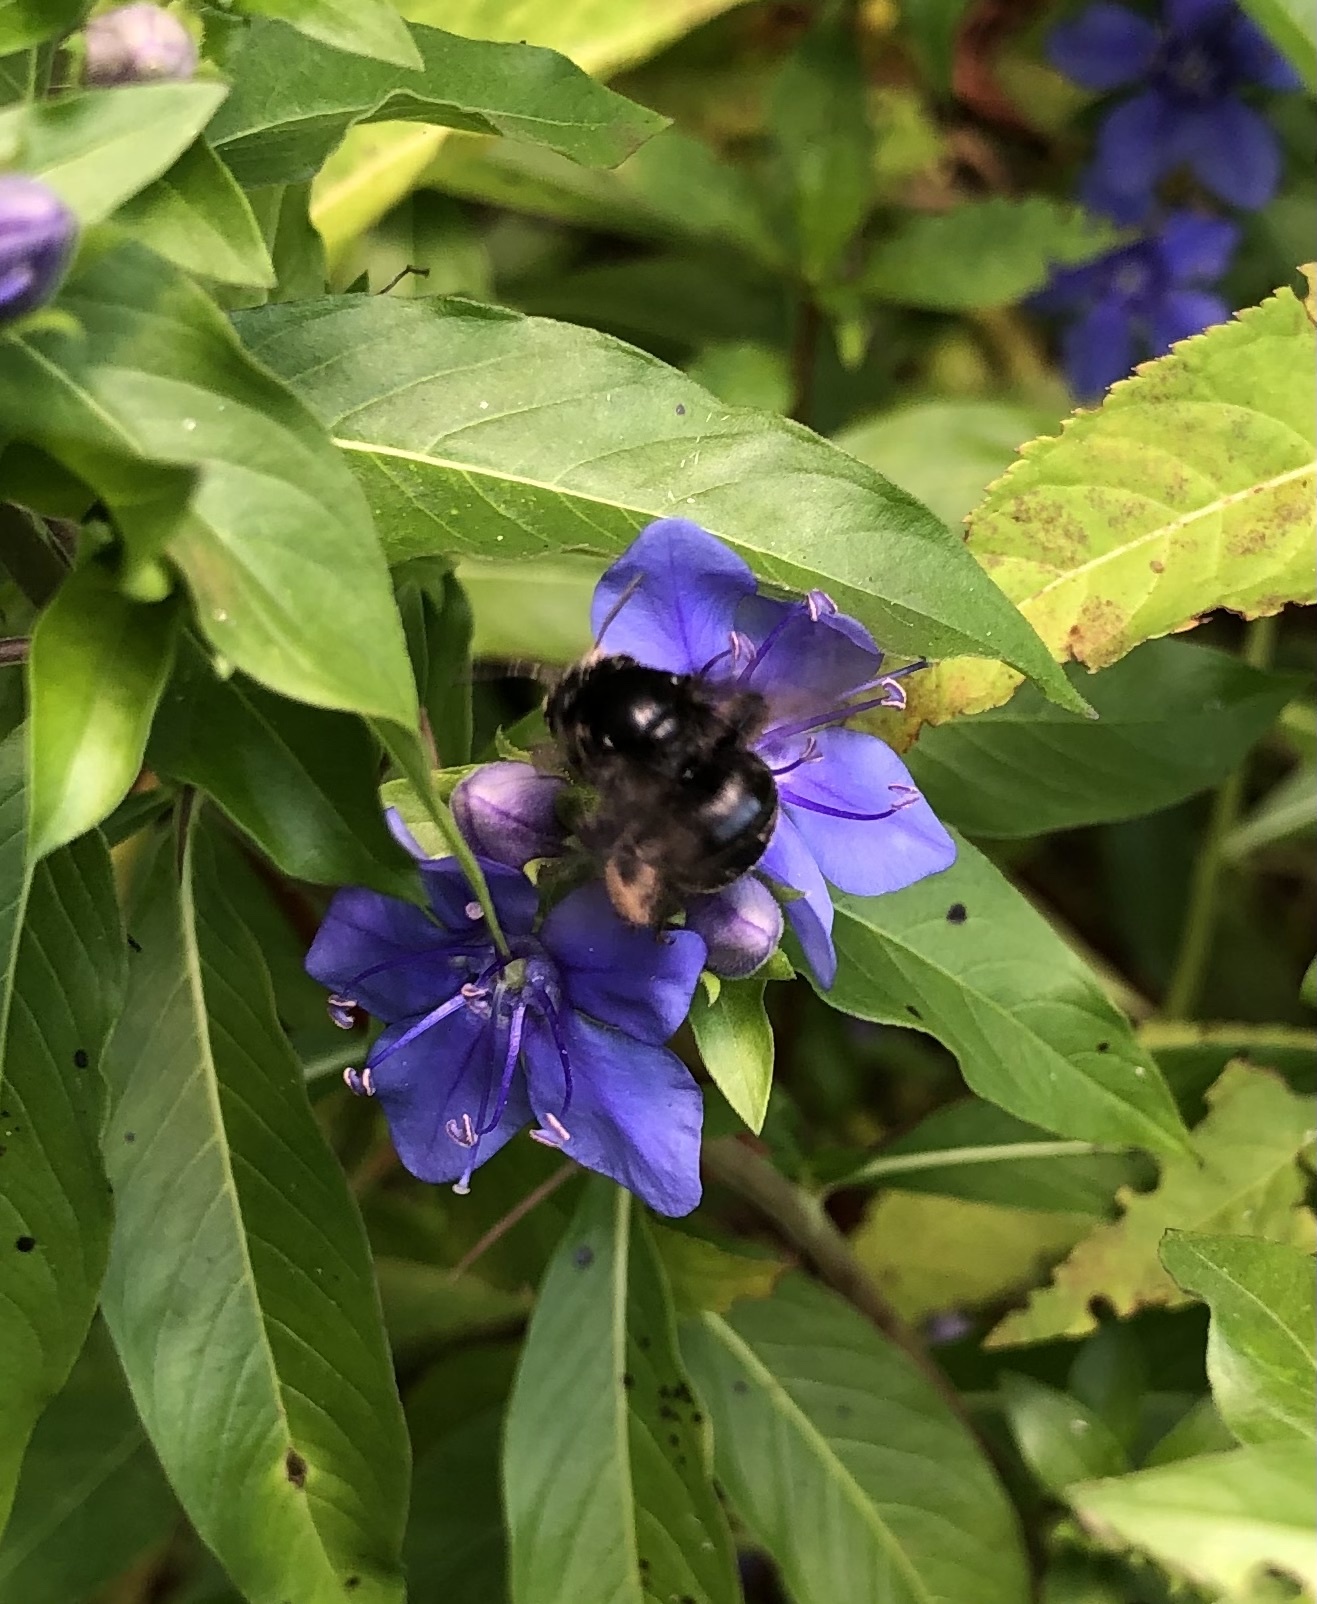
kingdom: Animalia
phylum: Arthropoda
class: Insecta
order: Hymenoptera
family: Apidae
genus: Melissodes
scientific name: Melissodes bimaculatus
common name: Two-spotted long-horned bee
